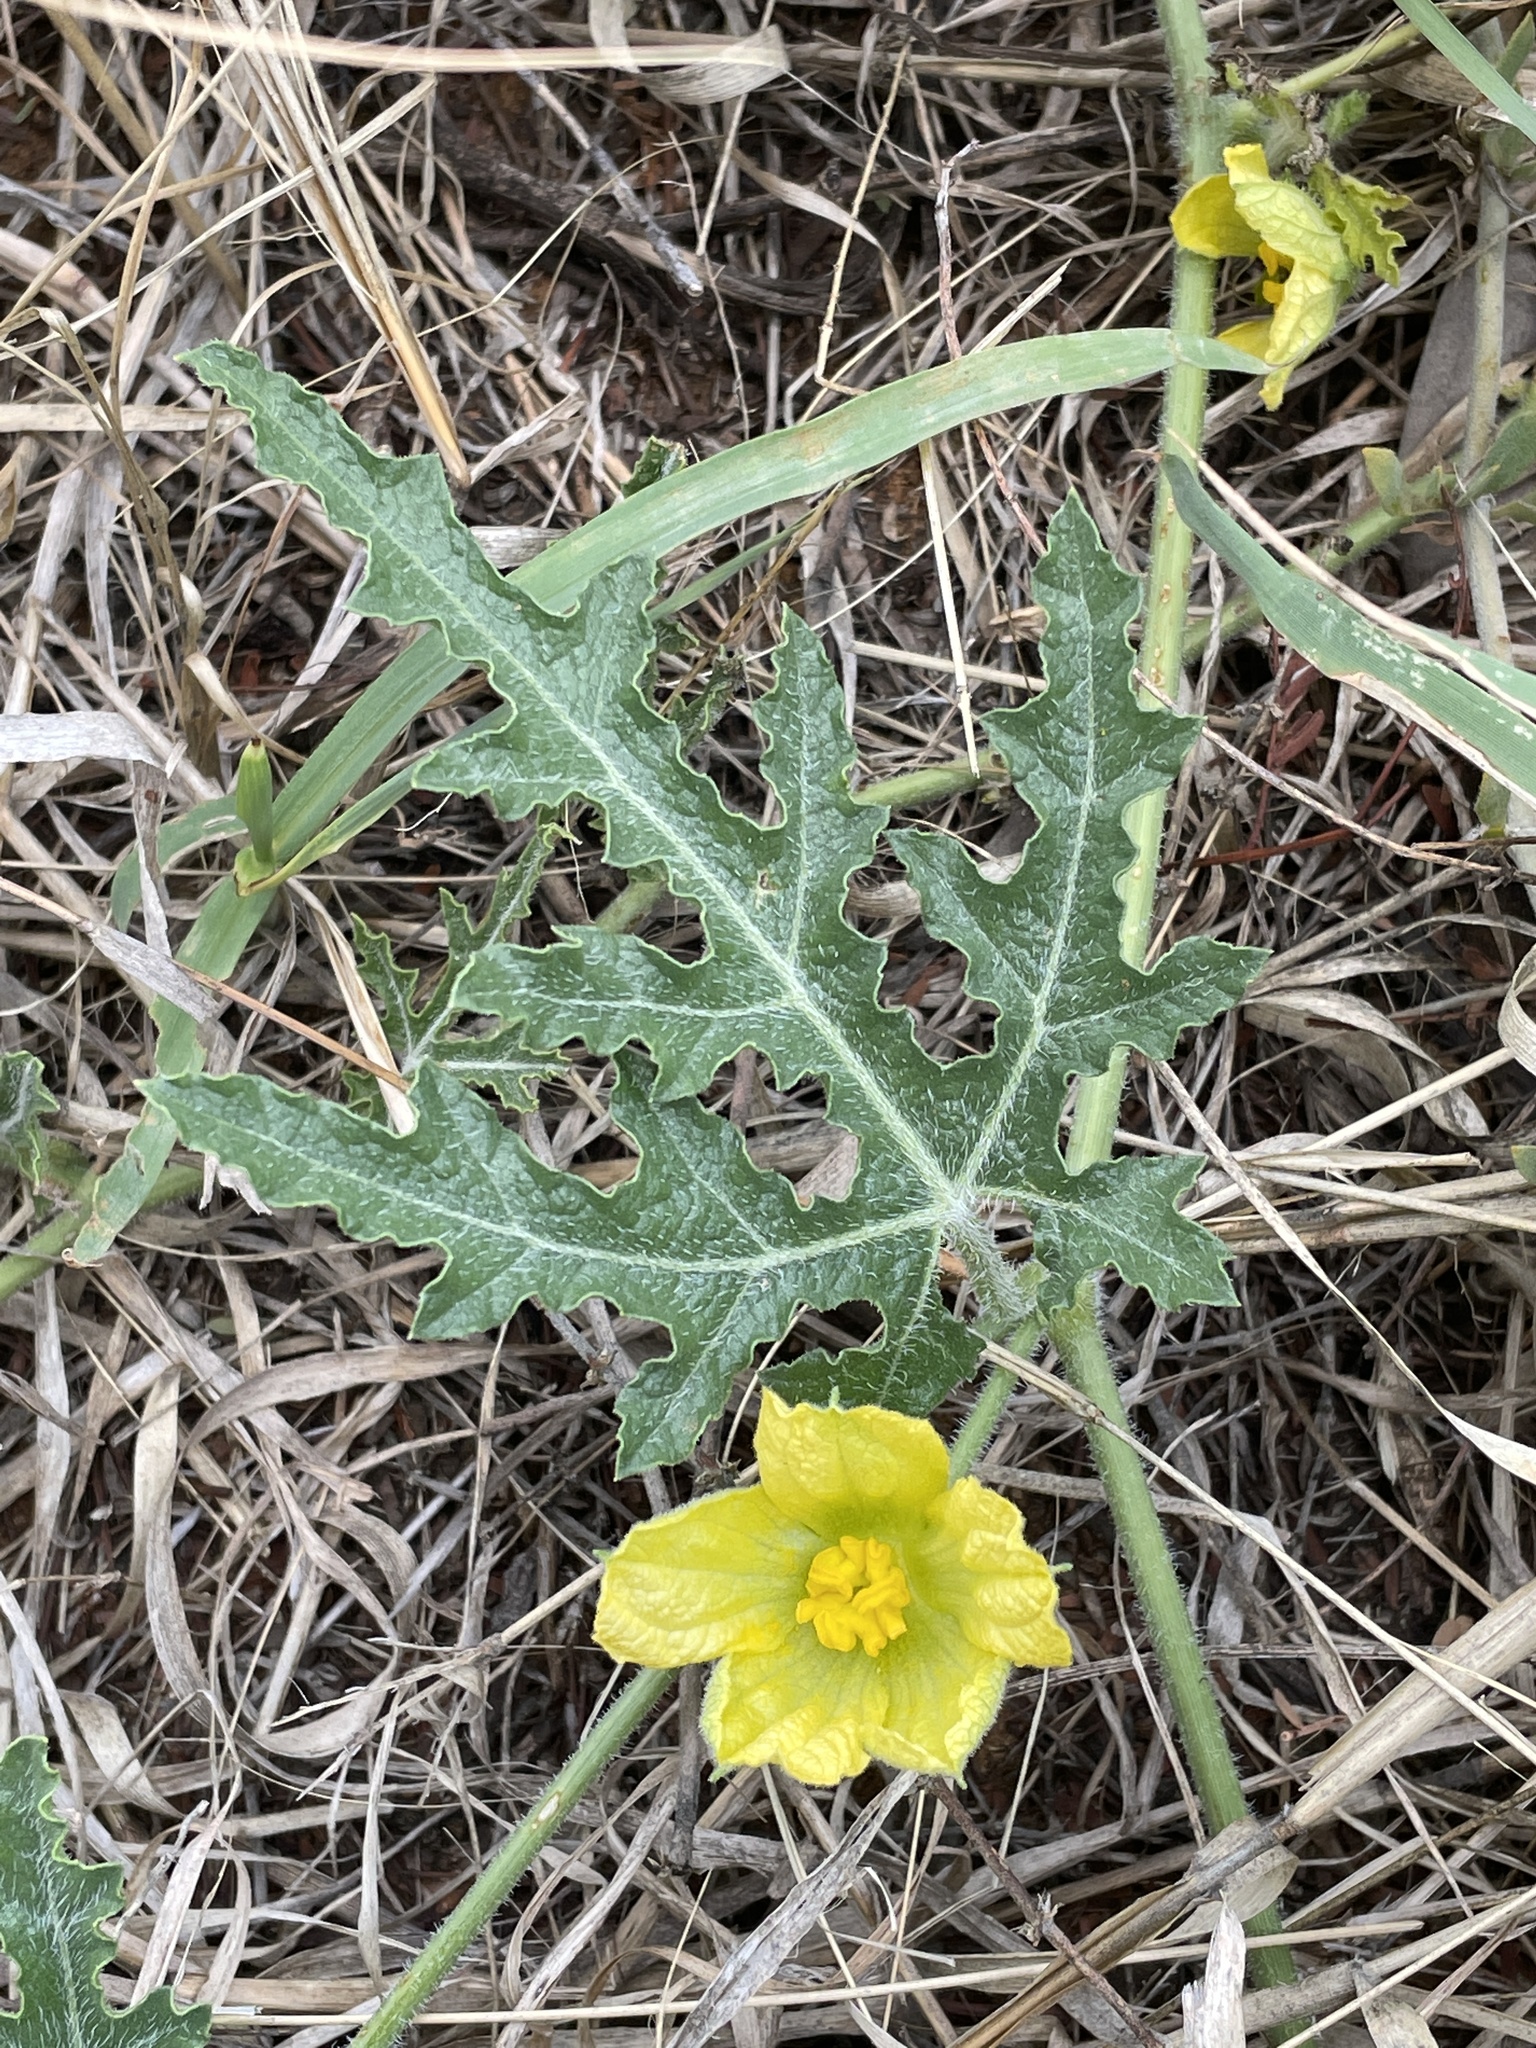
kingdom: Plantae
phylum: Tracheophyta
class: Magnoliopsida
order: Cucurbitales
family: Cucurbitaceae
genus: Citrullus
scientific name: Citrullus naudinianus
